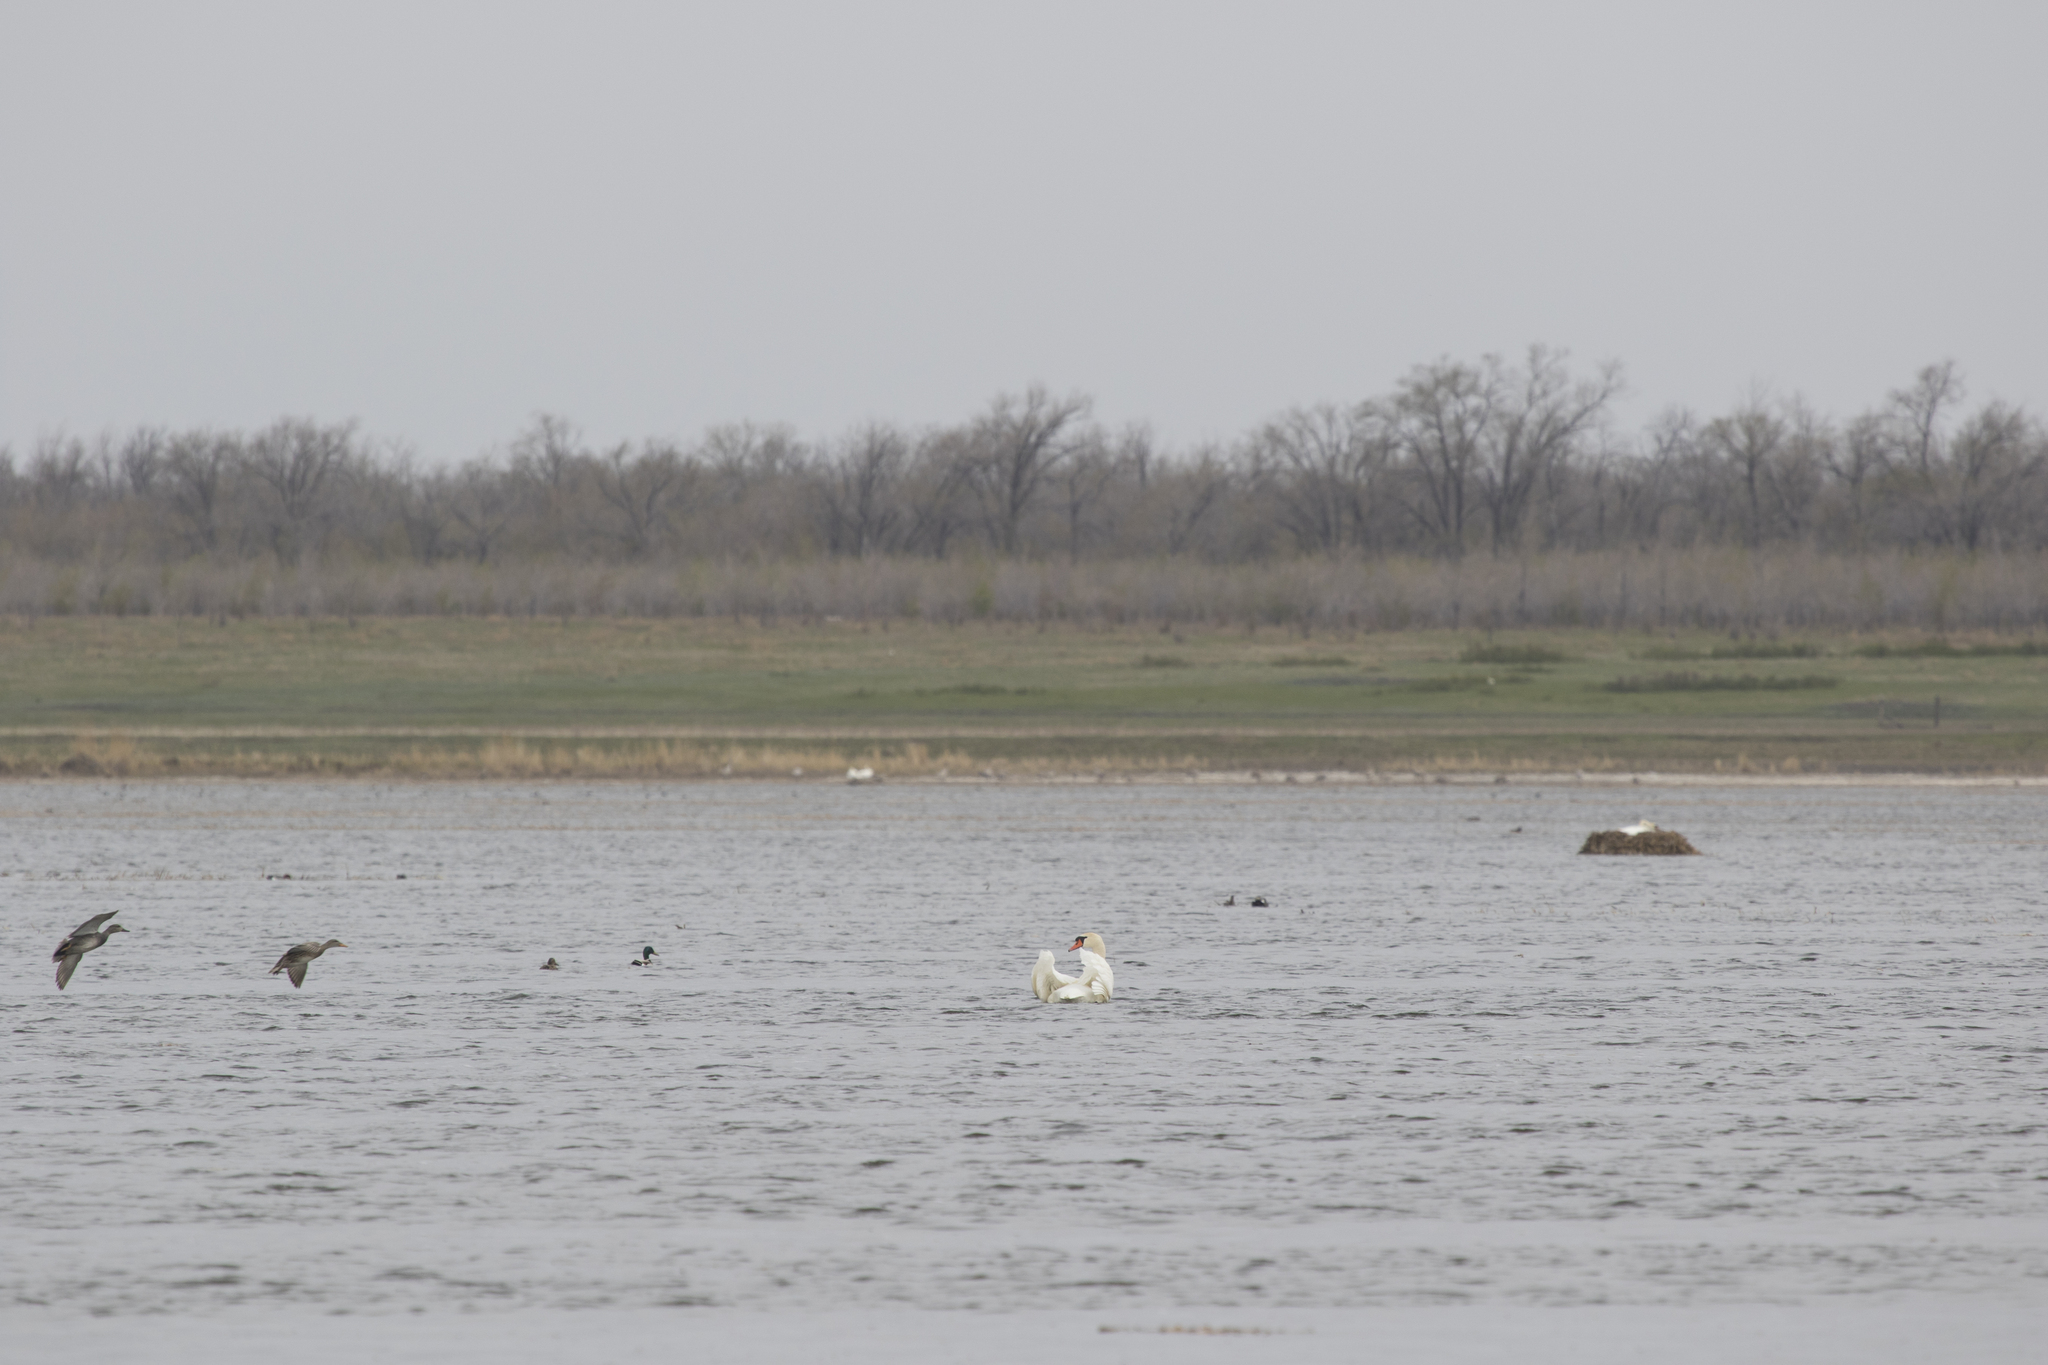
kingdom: Animalia
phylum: Chordata
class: Aves
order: Anseriformes
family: Anatidae
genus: Cygnus
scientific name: Cygnus olor
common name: Mute swan
